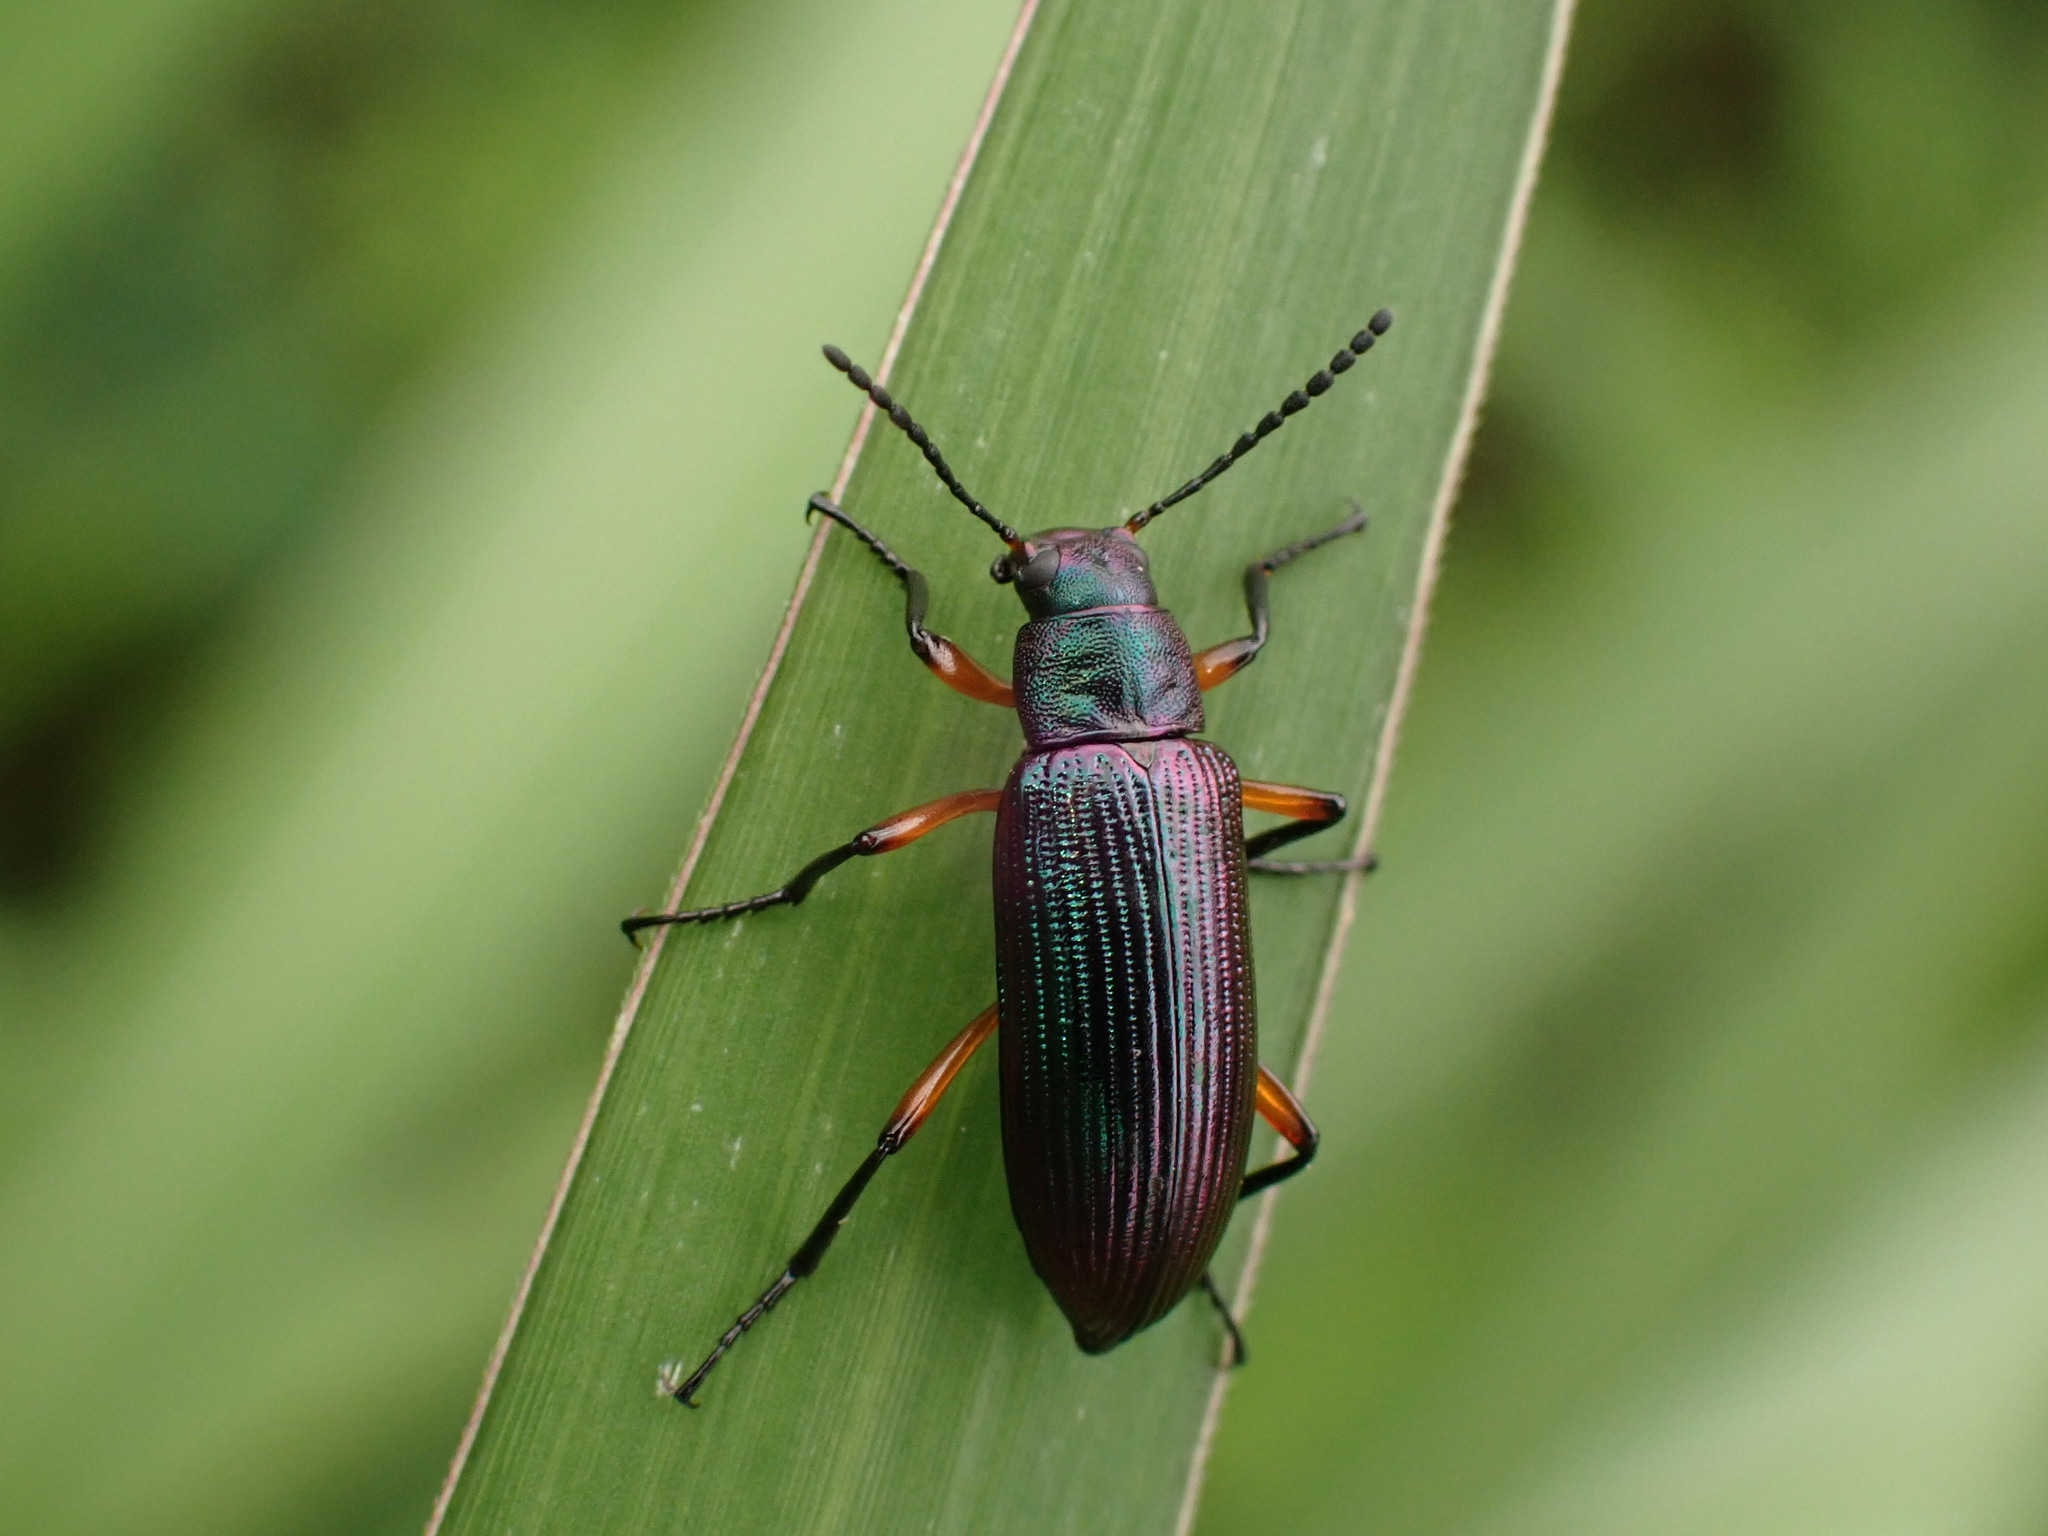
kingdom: Animalia
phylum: Arthropoda
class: Insecta
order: Coleoptera
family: Tenebrionidae
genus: Strongylium
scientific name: Strongylium
